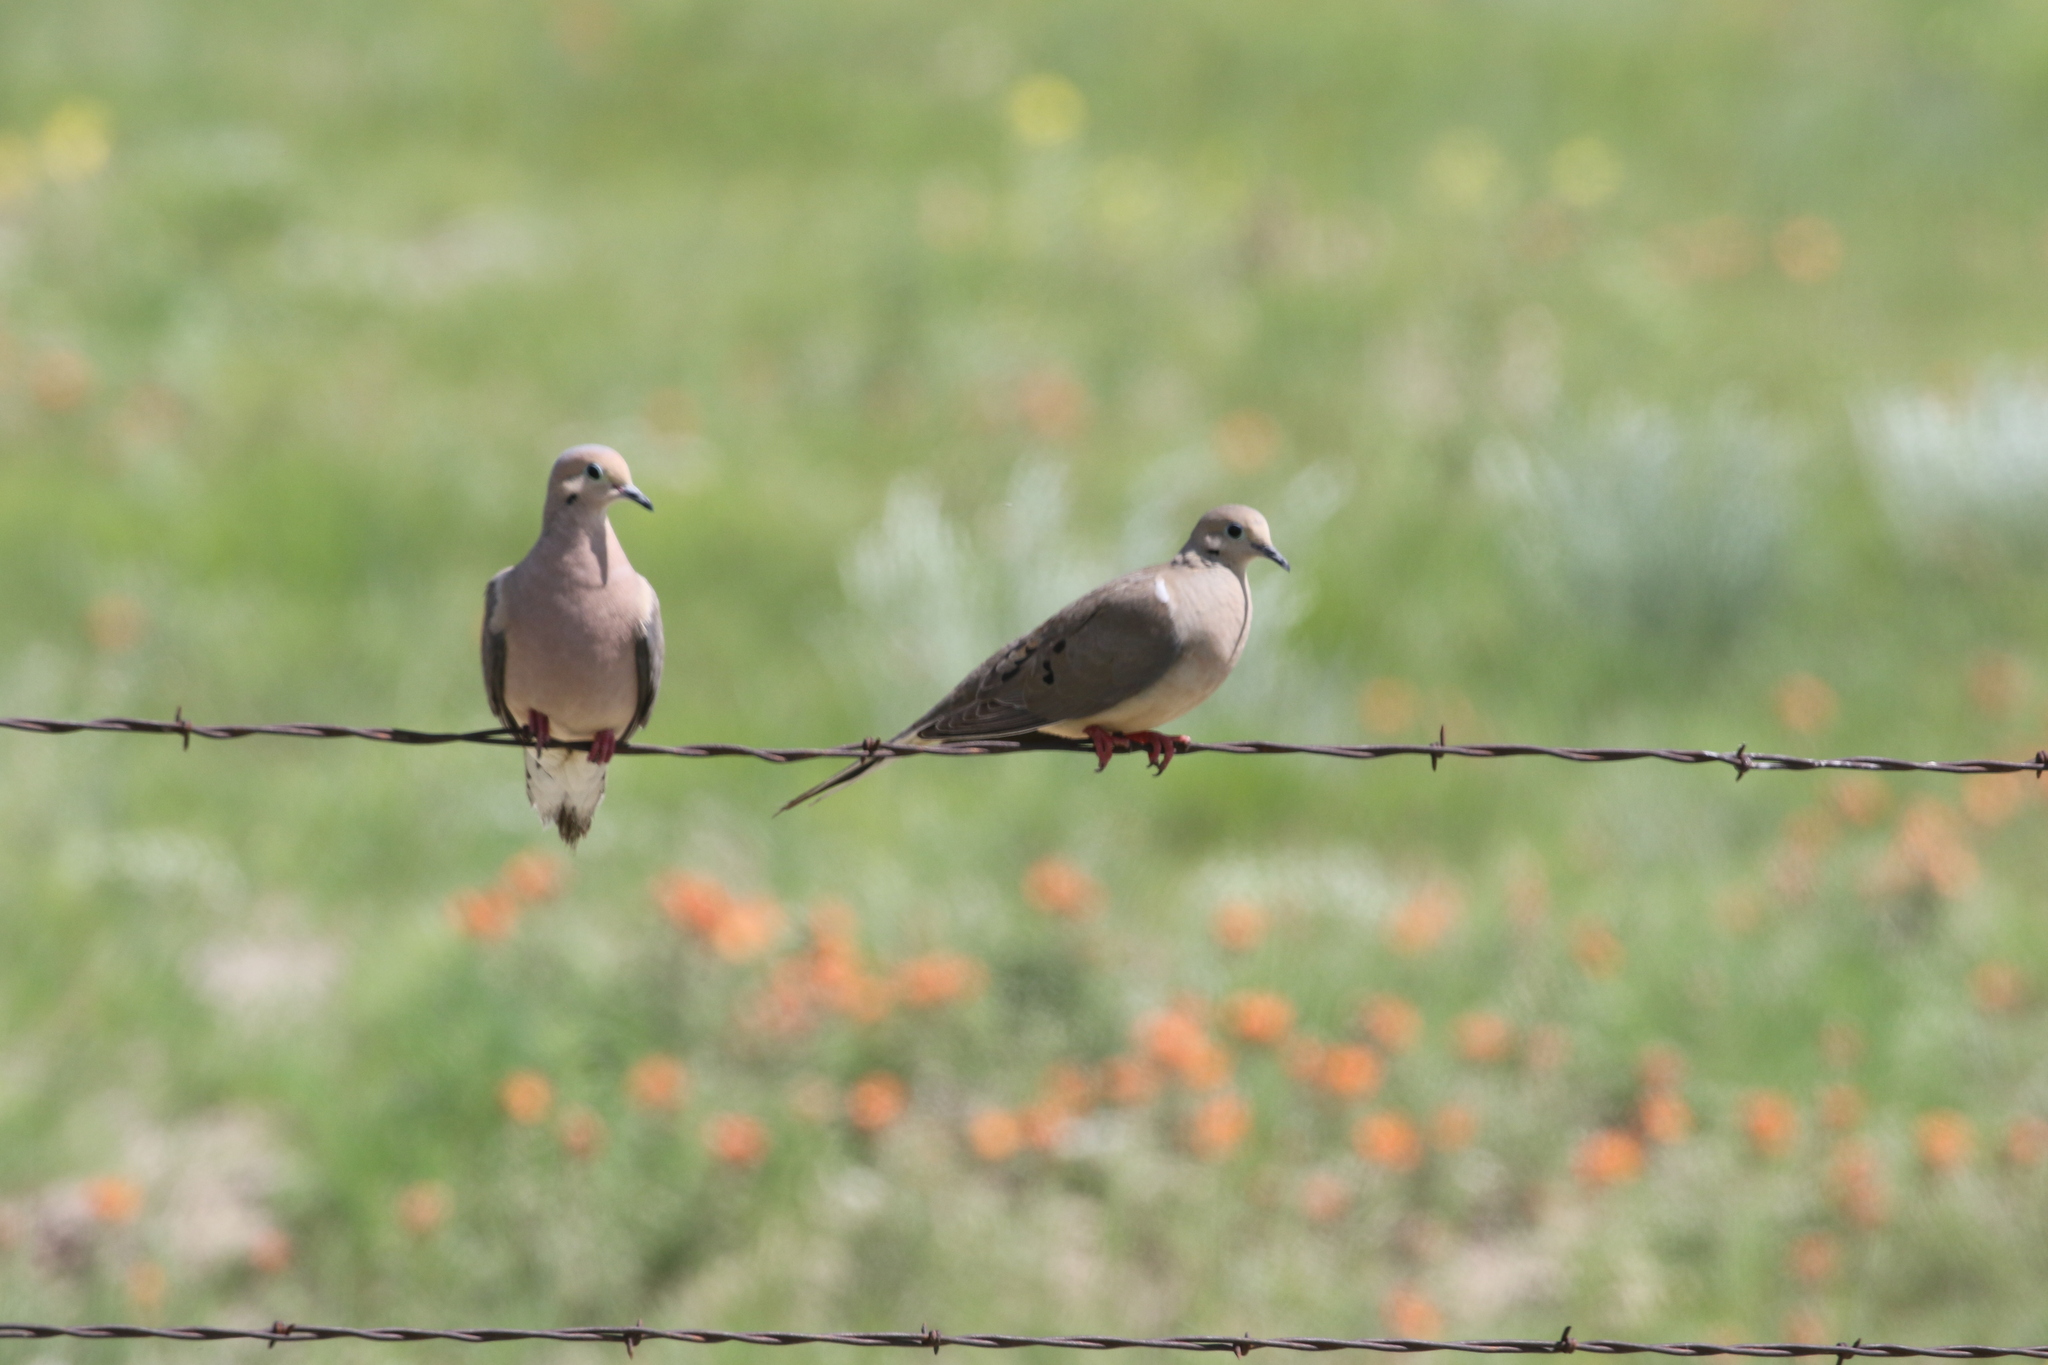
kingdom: Animalia
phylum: Chordata
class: Aves
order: Columbiformes
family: Columbidae
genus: Zenaida
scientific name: Zenaida macroura
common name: Mourning dove
